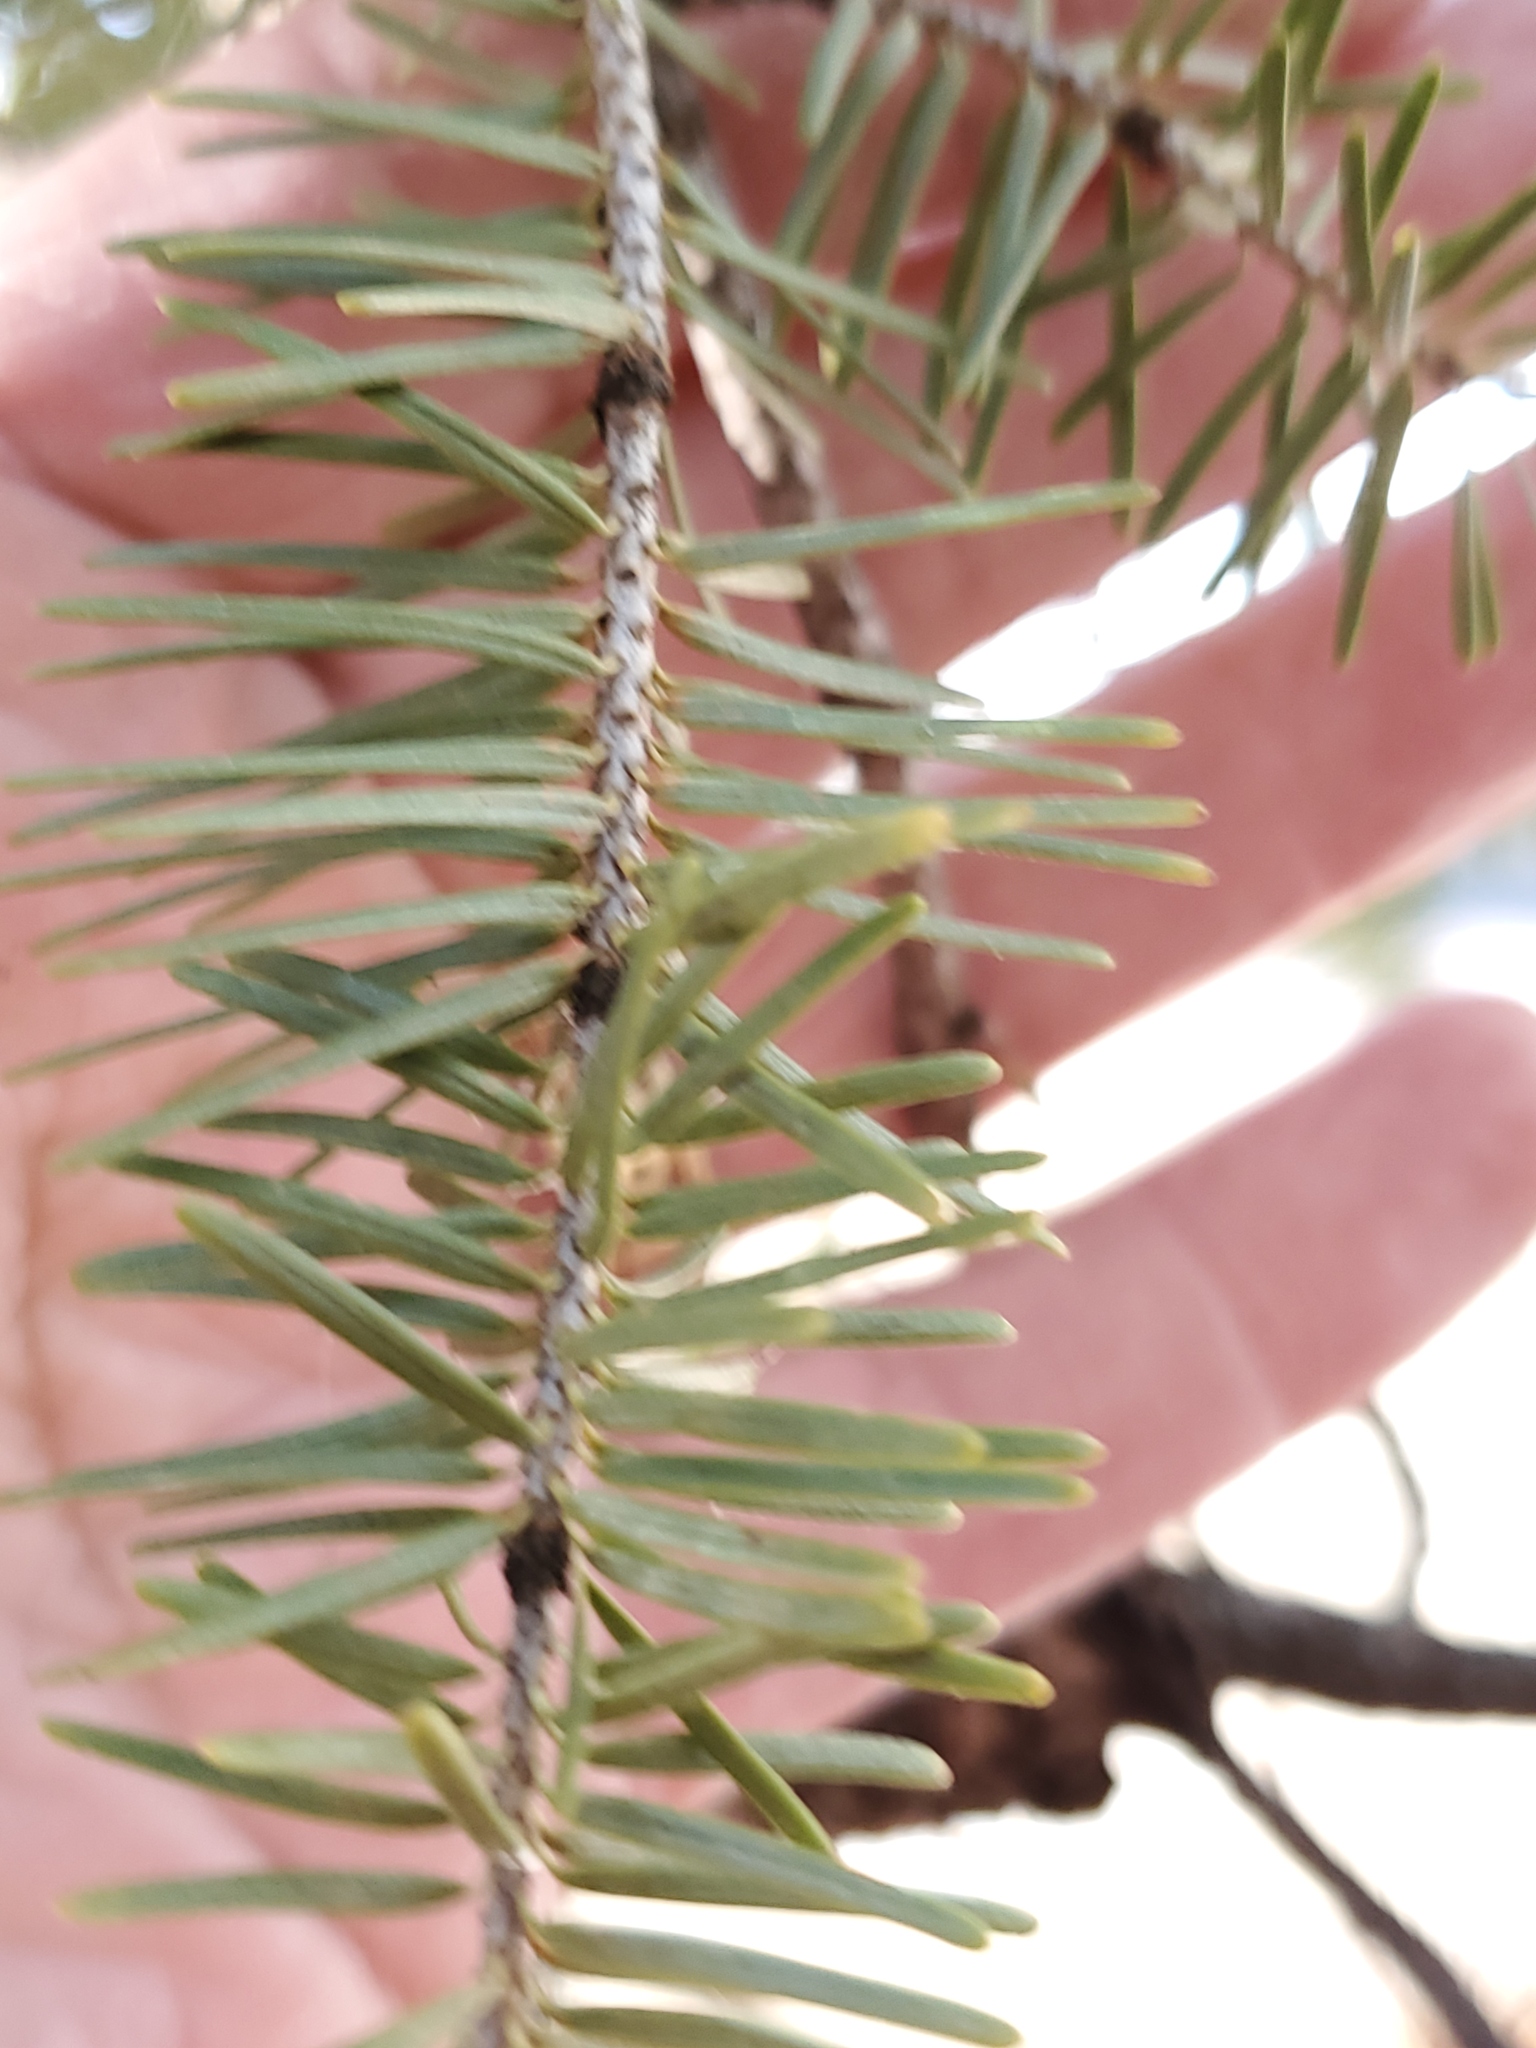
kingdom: Plantae
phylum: Tracheophyta
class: Pinopsida
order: Pinales
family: Pinaceae
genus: Pseudotsuga
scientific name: Pseudotsuga menziesii
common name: Douglas fir
